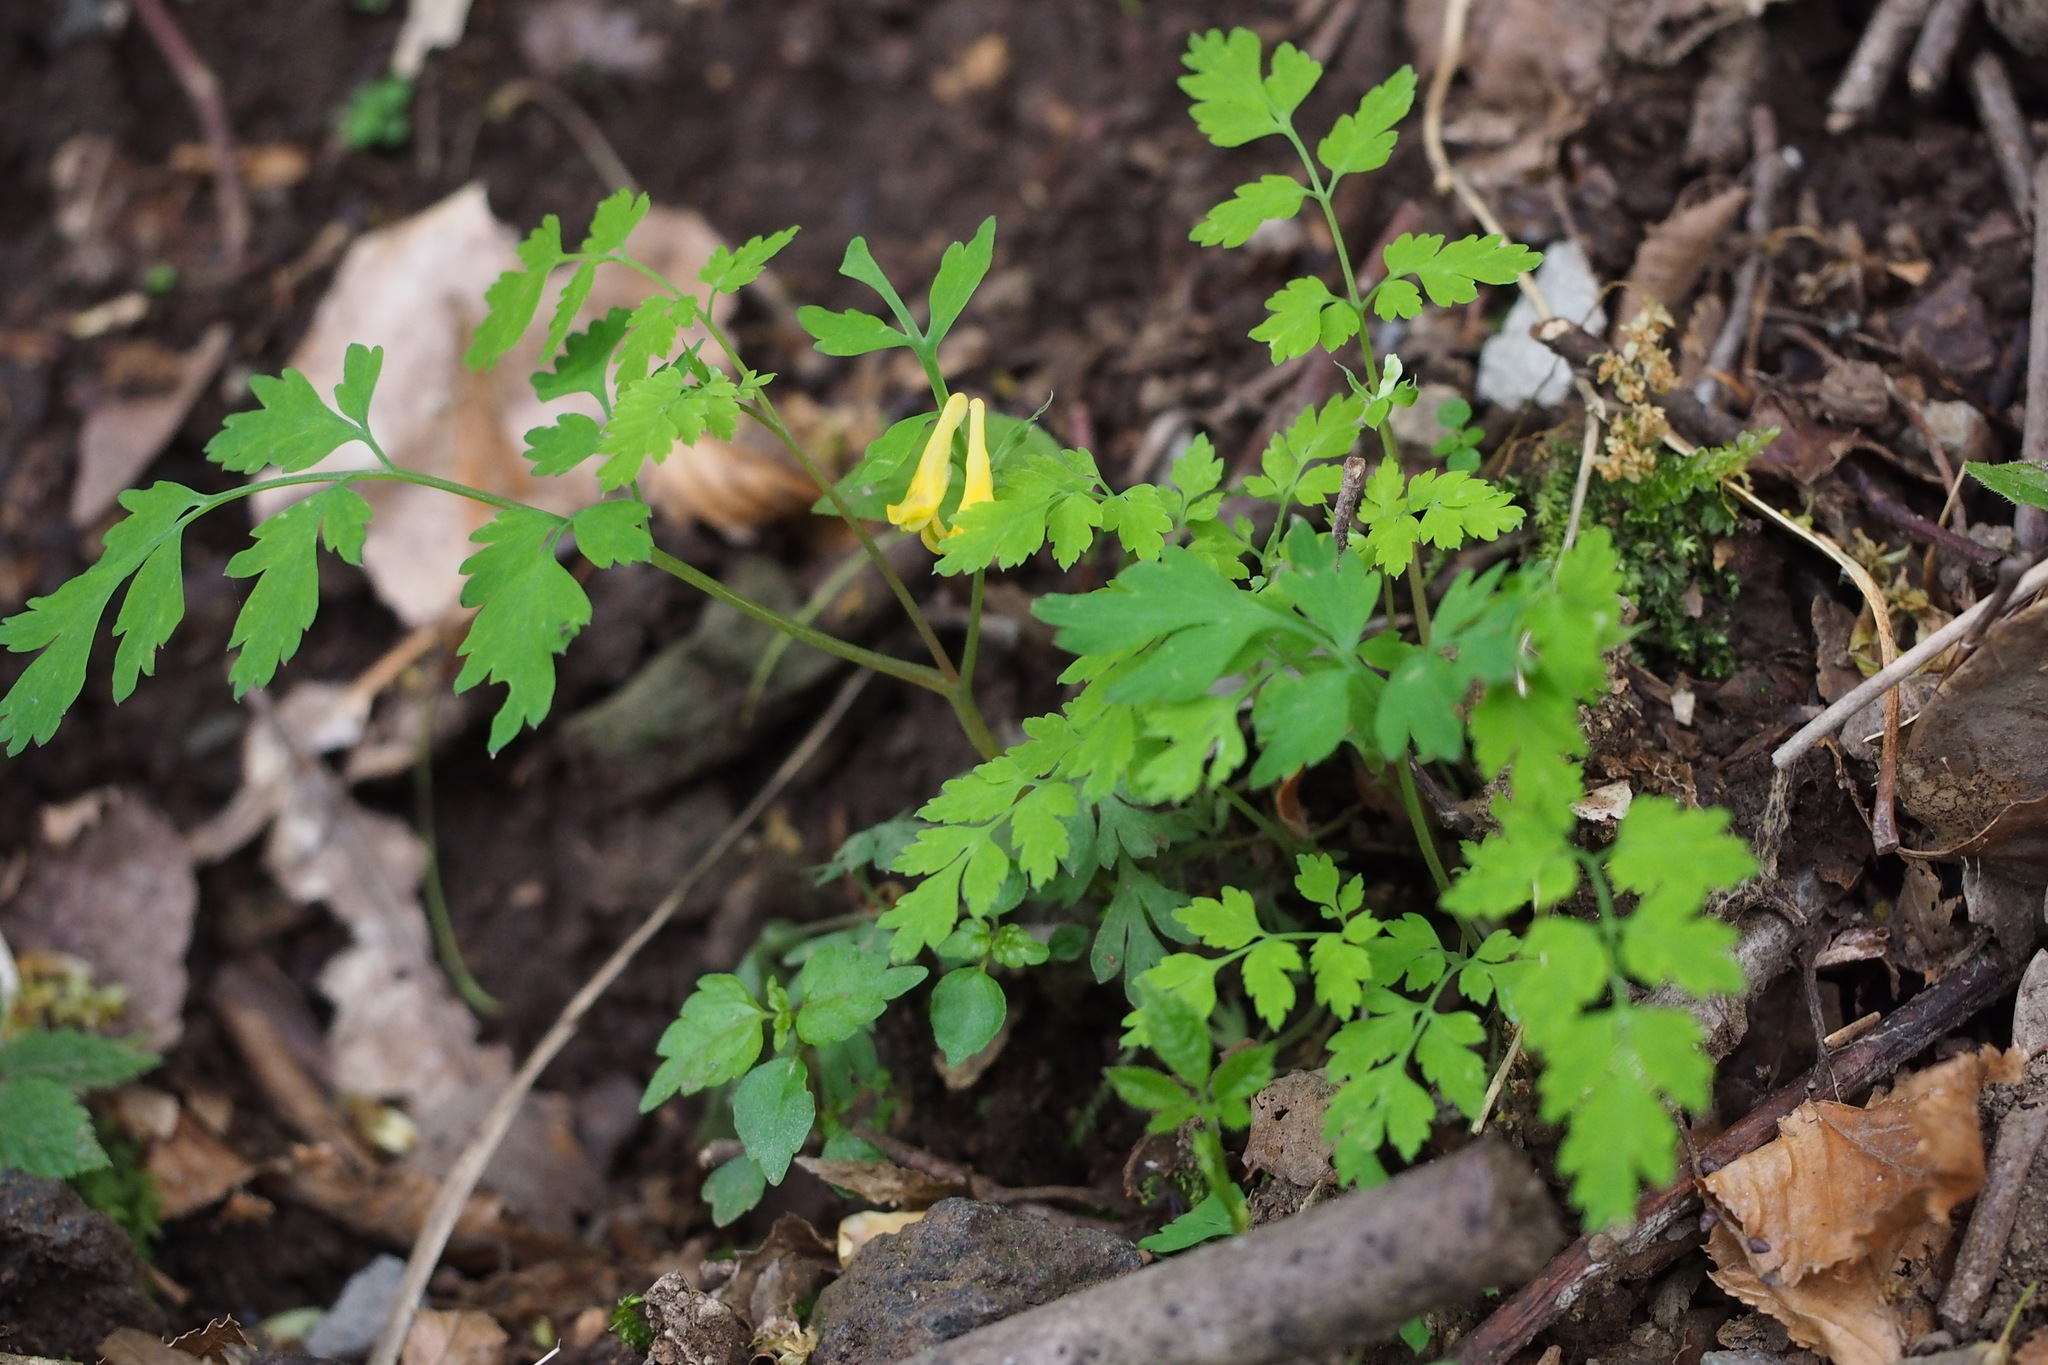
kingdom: Plantae
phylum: Tracheophyta
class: Magnoliopsida
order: Ranunculales
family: Papaveraceae
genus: Corydalis
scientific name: Corydalis pallida
